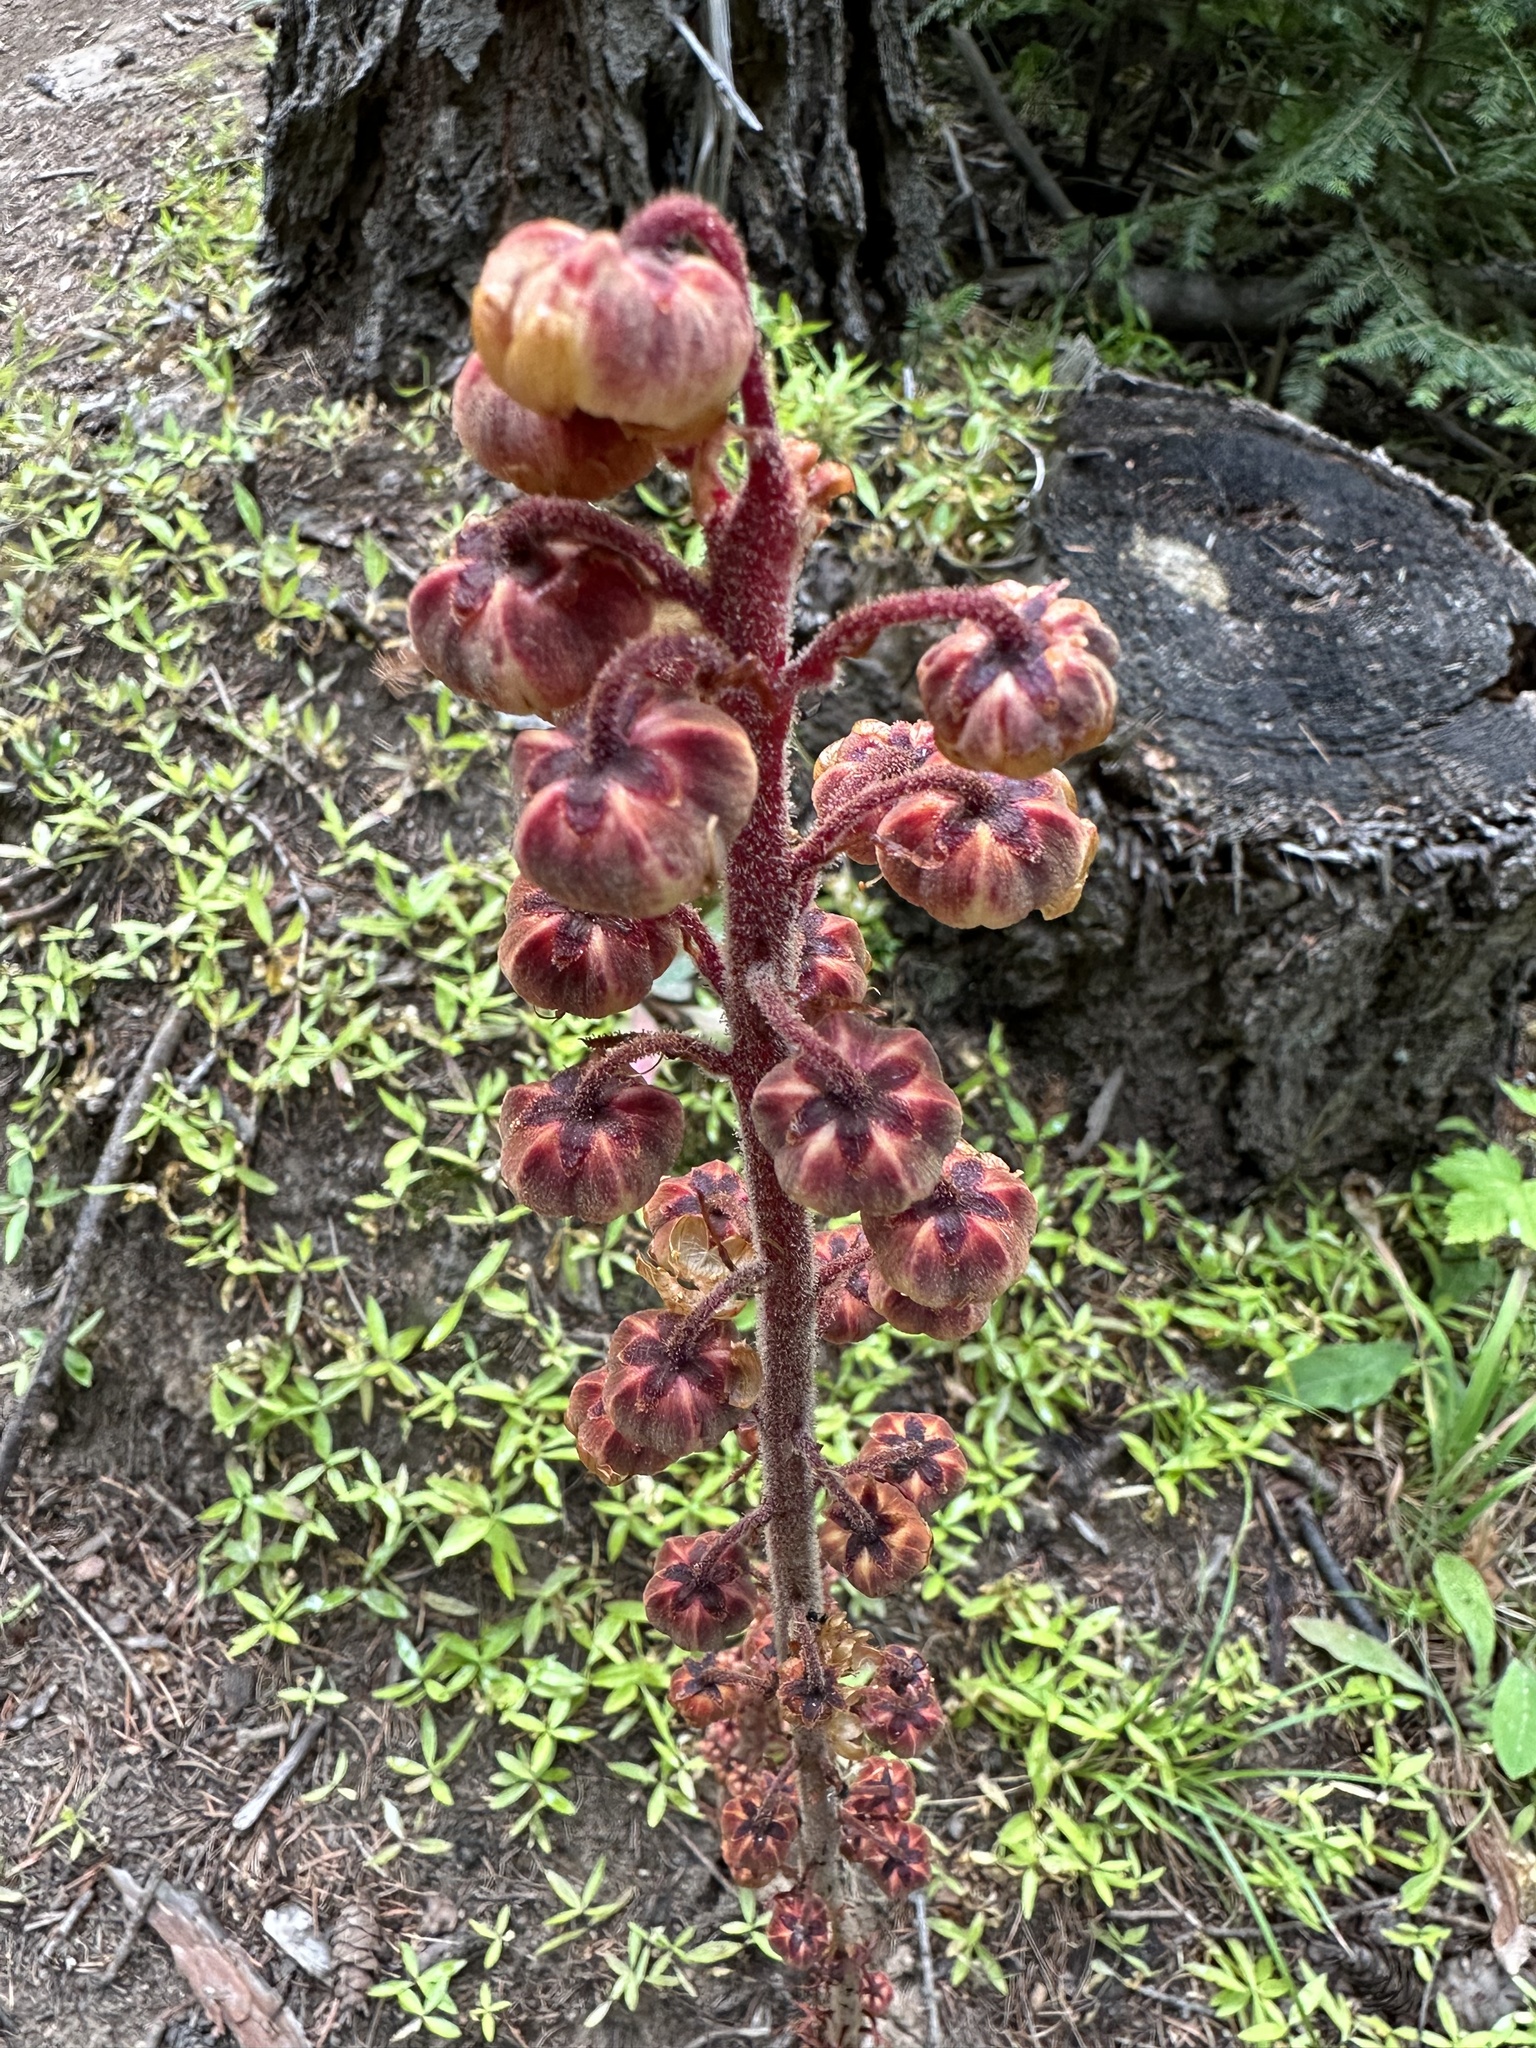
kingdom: Plantae
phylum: Tracheophyta
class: Magnoliopsida
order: Ericales
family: Ericaceae
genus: Pterospora
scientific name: Pterospora andromedea
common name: Giant bird's-nest
